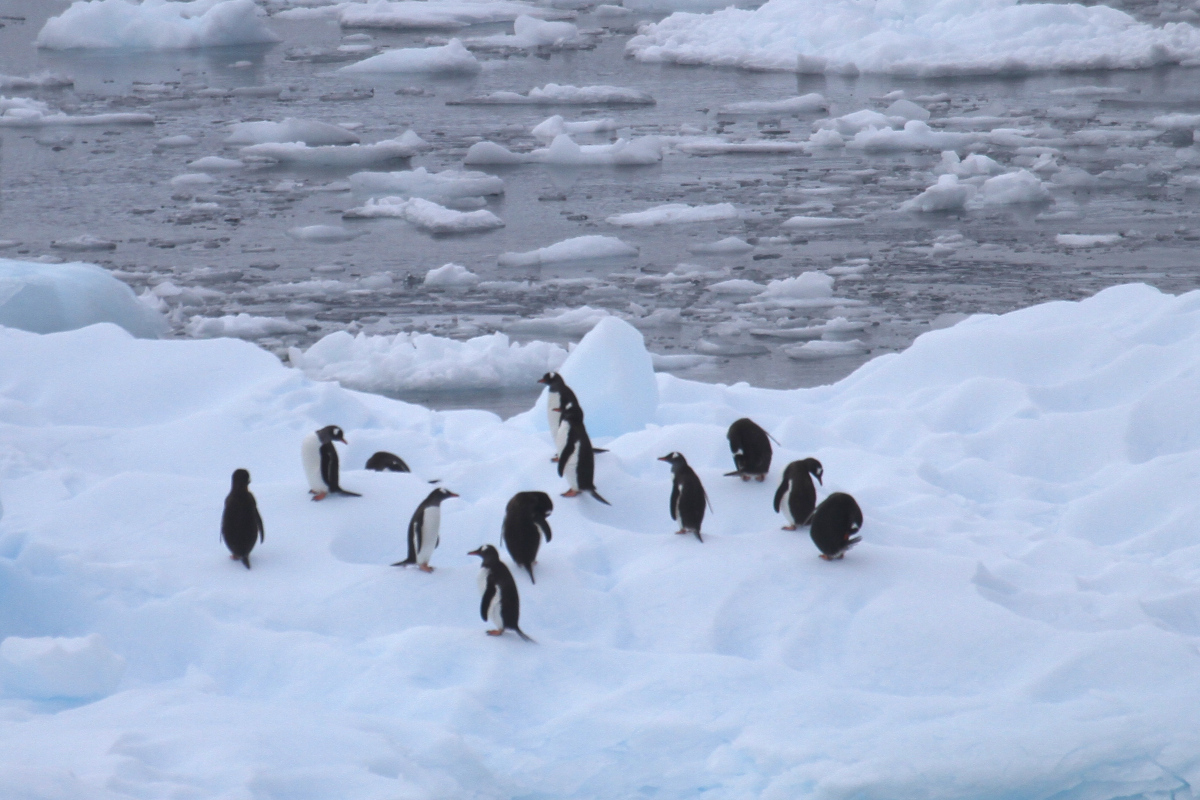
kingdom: Animalia
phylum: Chordata
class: Aves
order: Sphenisciformes
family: Spheniscidae
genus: Pygoscelis
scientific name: Pygoscelis papua
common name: Gentoo penguin
